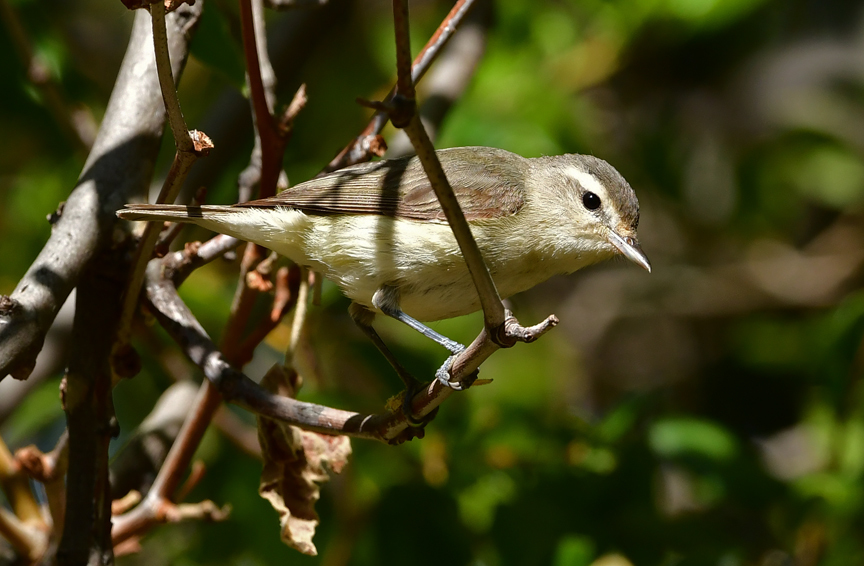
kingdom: Animalia
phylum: Chordata
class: Aves
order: Passeriformes
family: Vireonidae
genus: Vireo
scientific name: Vireo gilvus
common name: Warbling vireo
